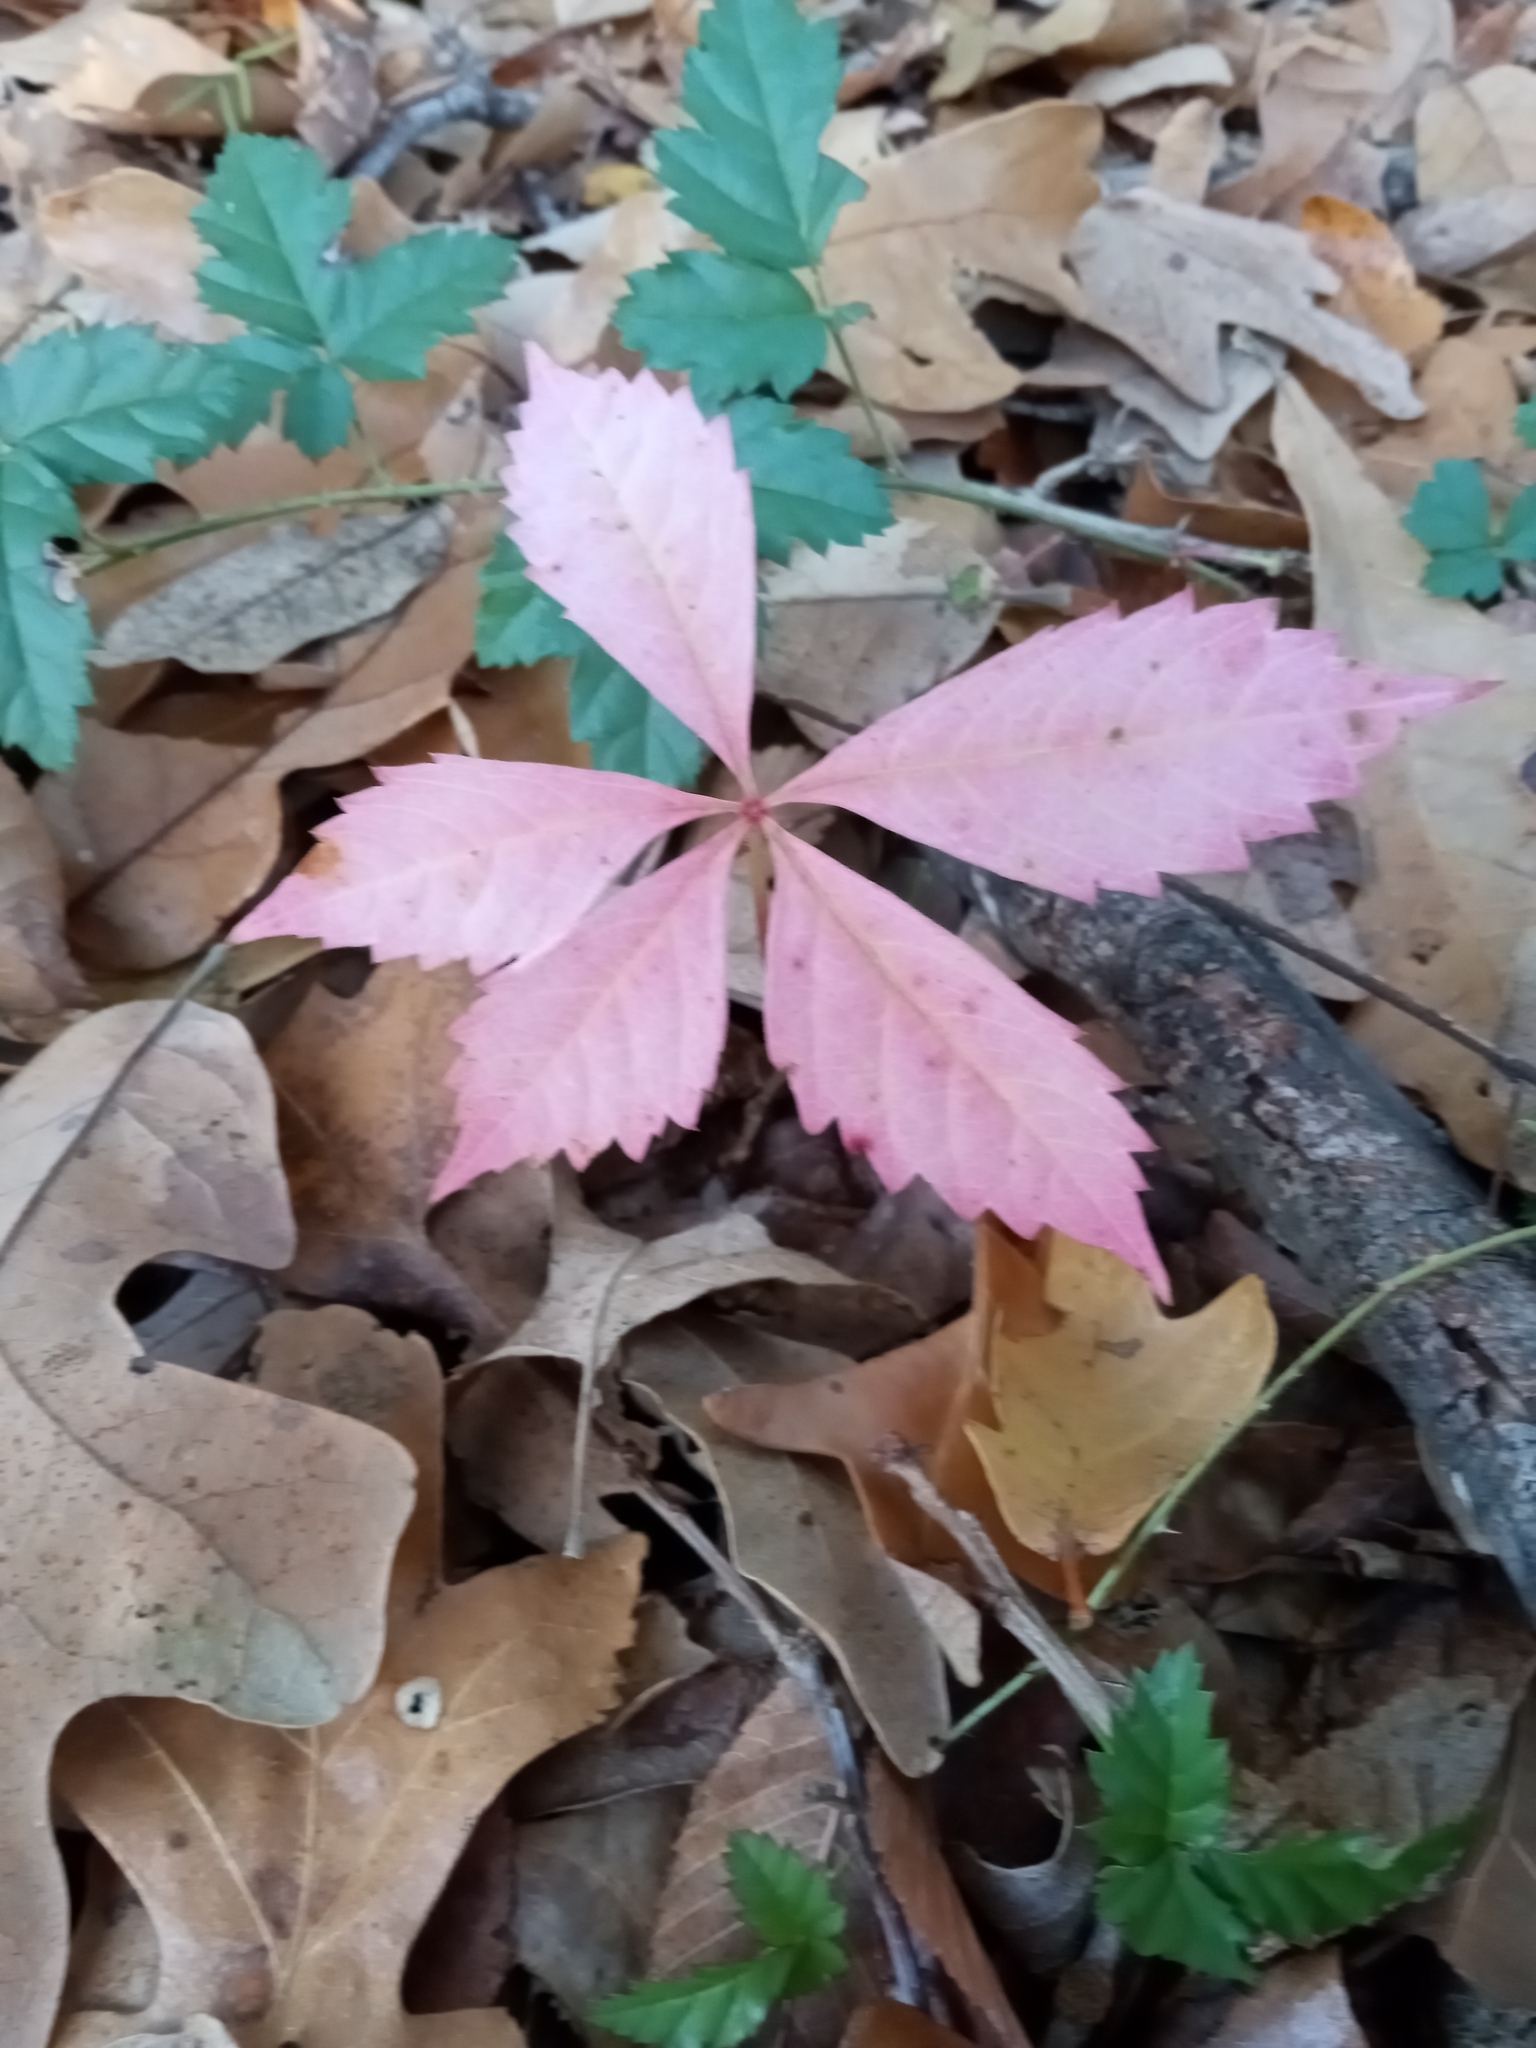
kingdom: Plantae
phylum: Tracheophyta
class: Magnoliopsida
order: Vitales
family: Vitaceae
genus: Parthenocissus
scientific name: Parthenocissus quinquefolia
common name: Virginia-creeper
